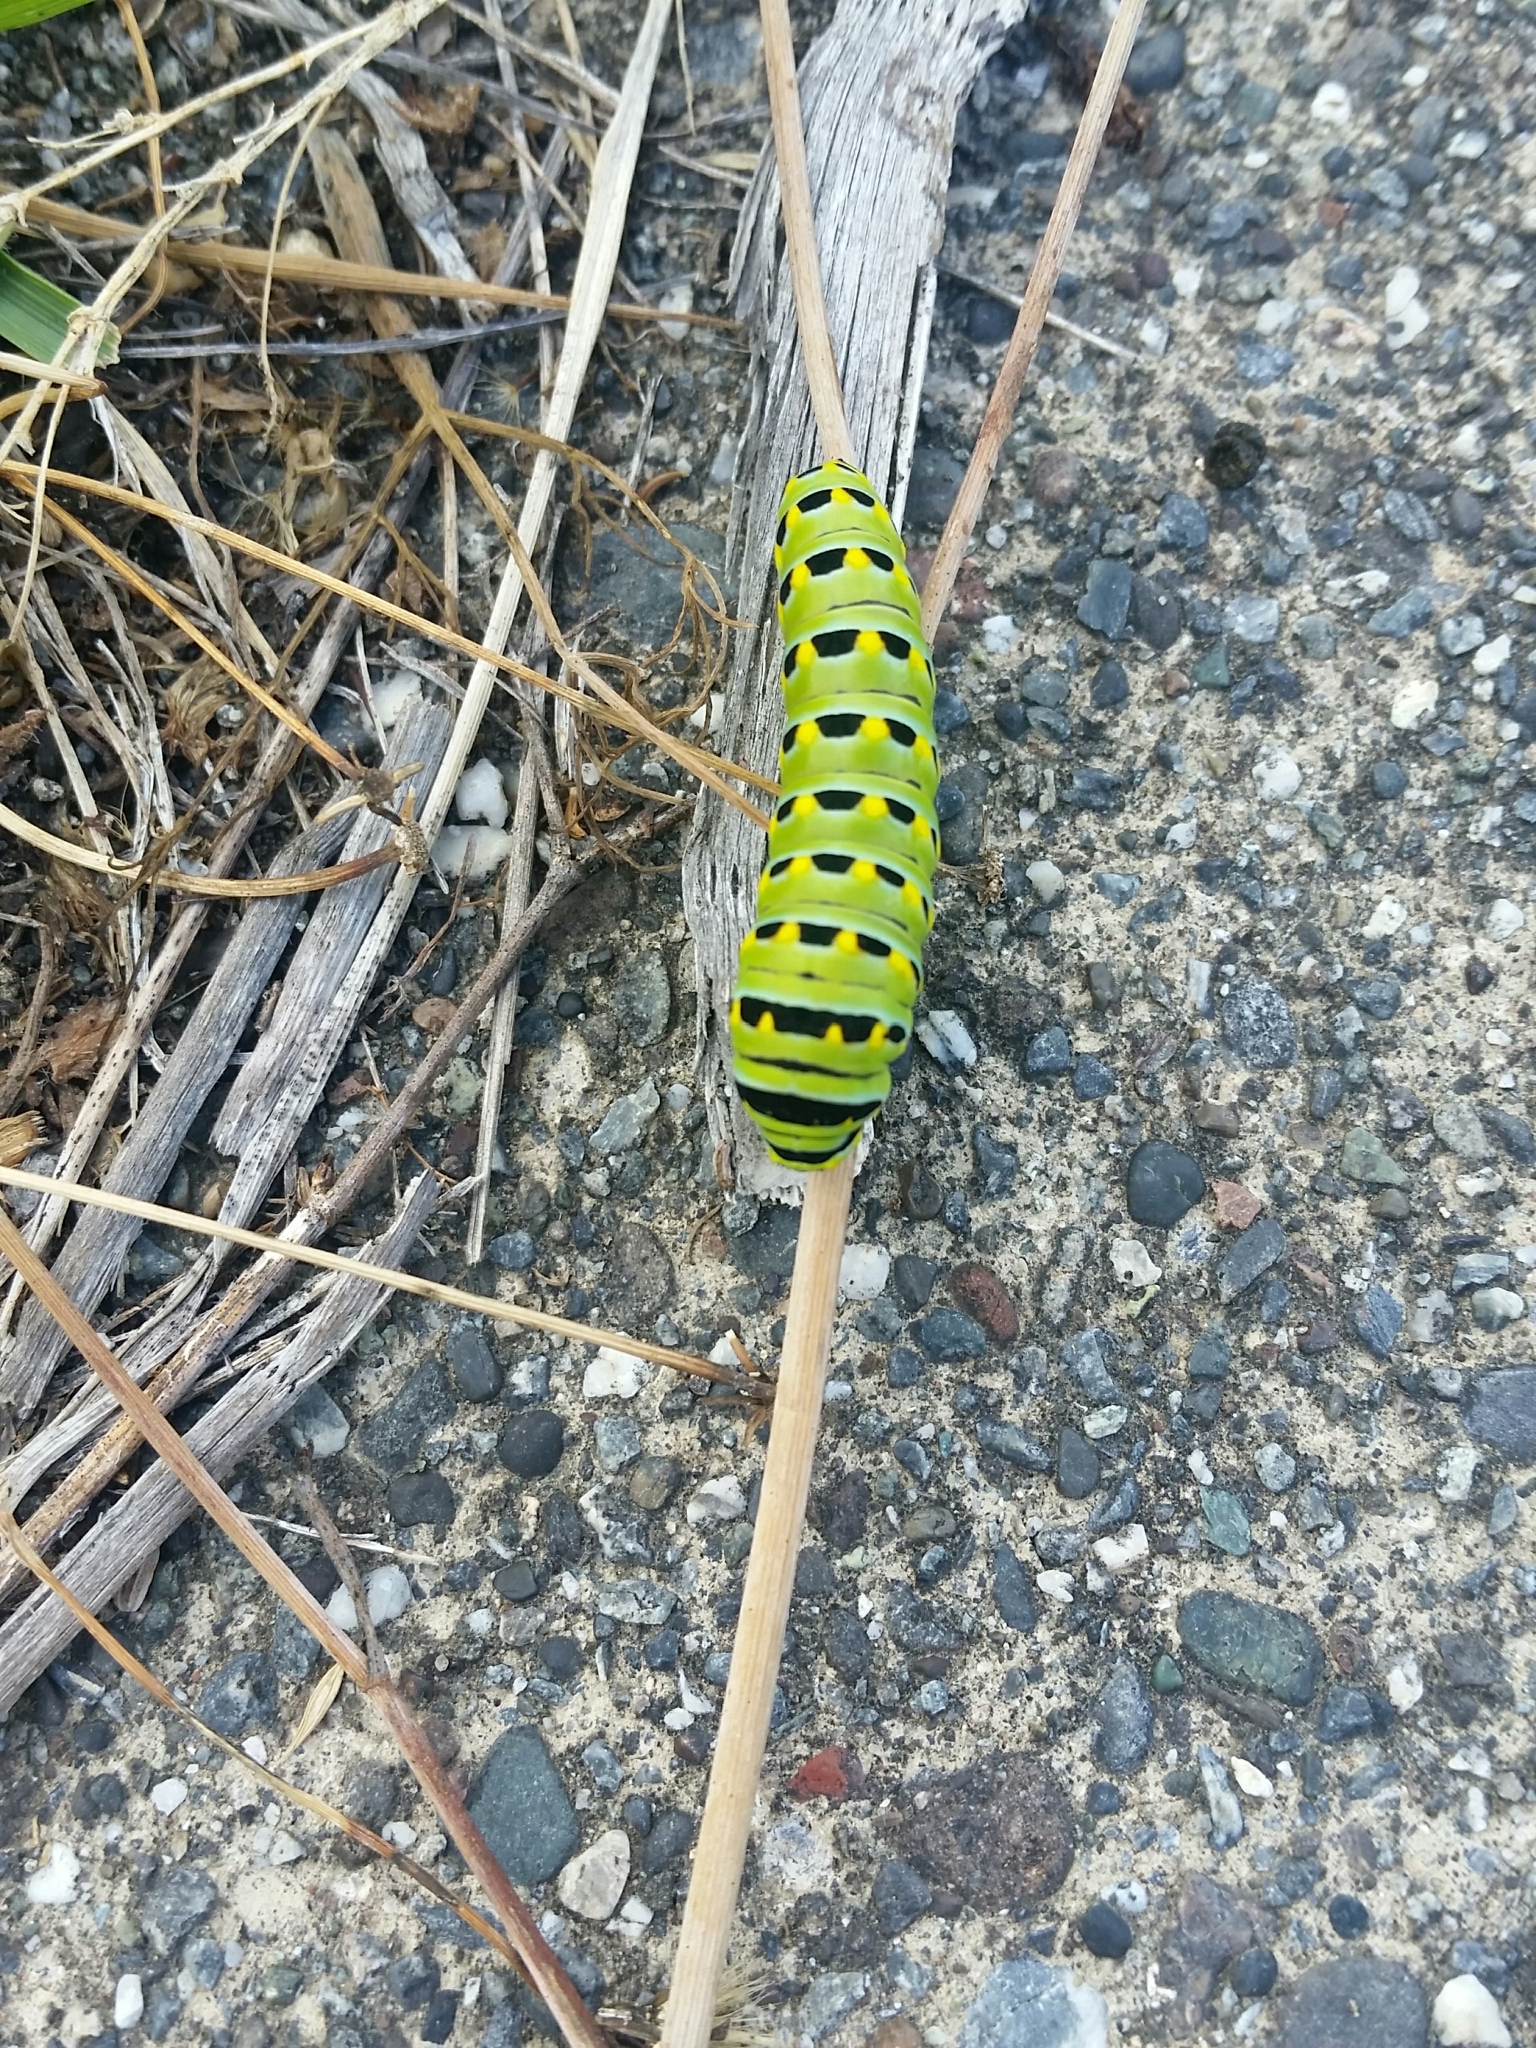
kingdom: Animalia
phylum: Arthropoda
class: Insecta
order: Lepidoptera
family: Papilionidae
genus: Papilio
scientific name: Papilio zelicaon
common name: Anise swallowtail
